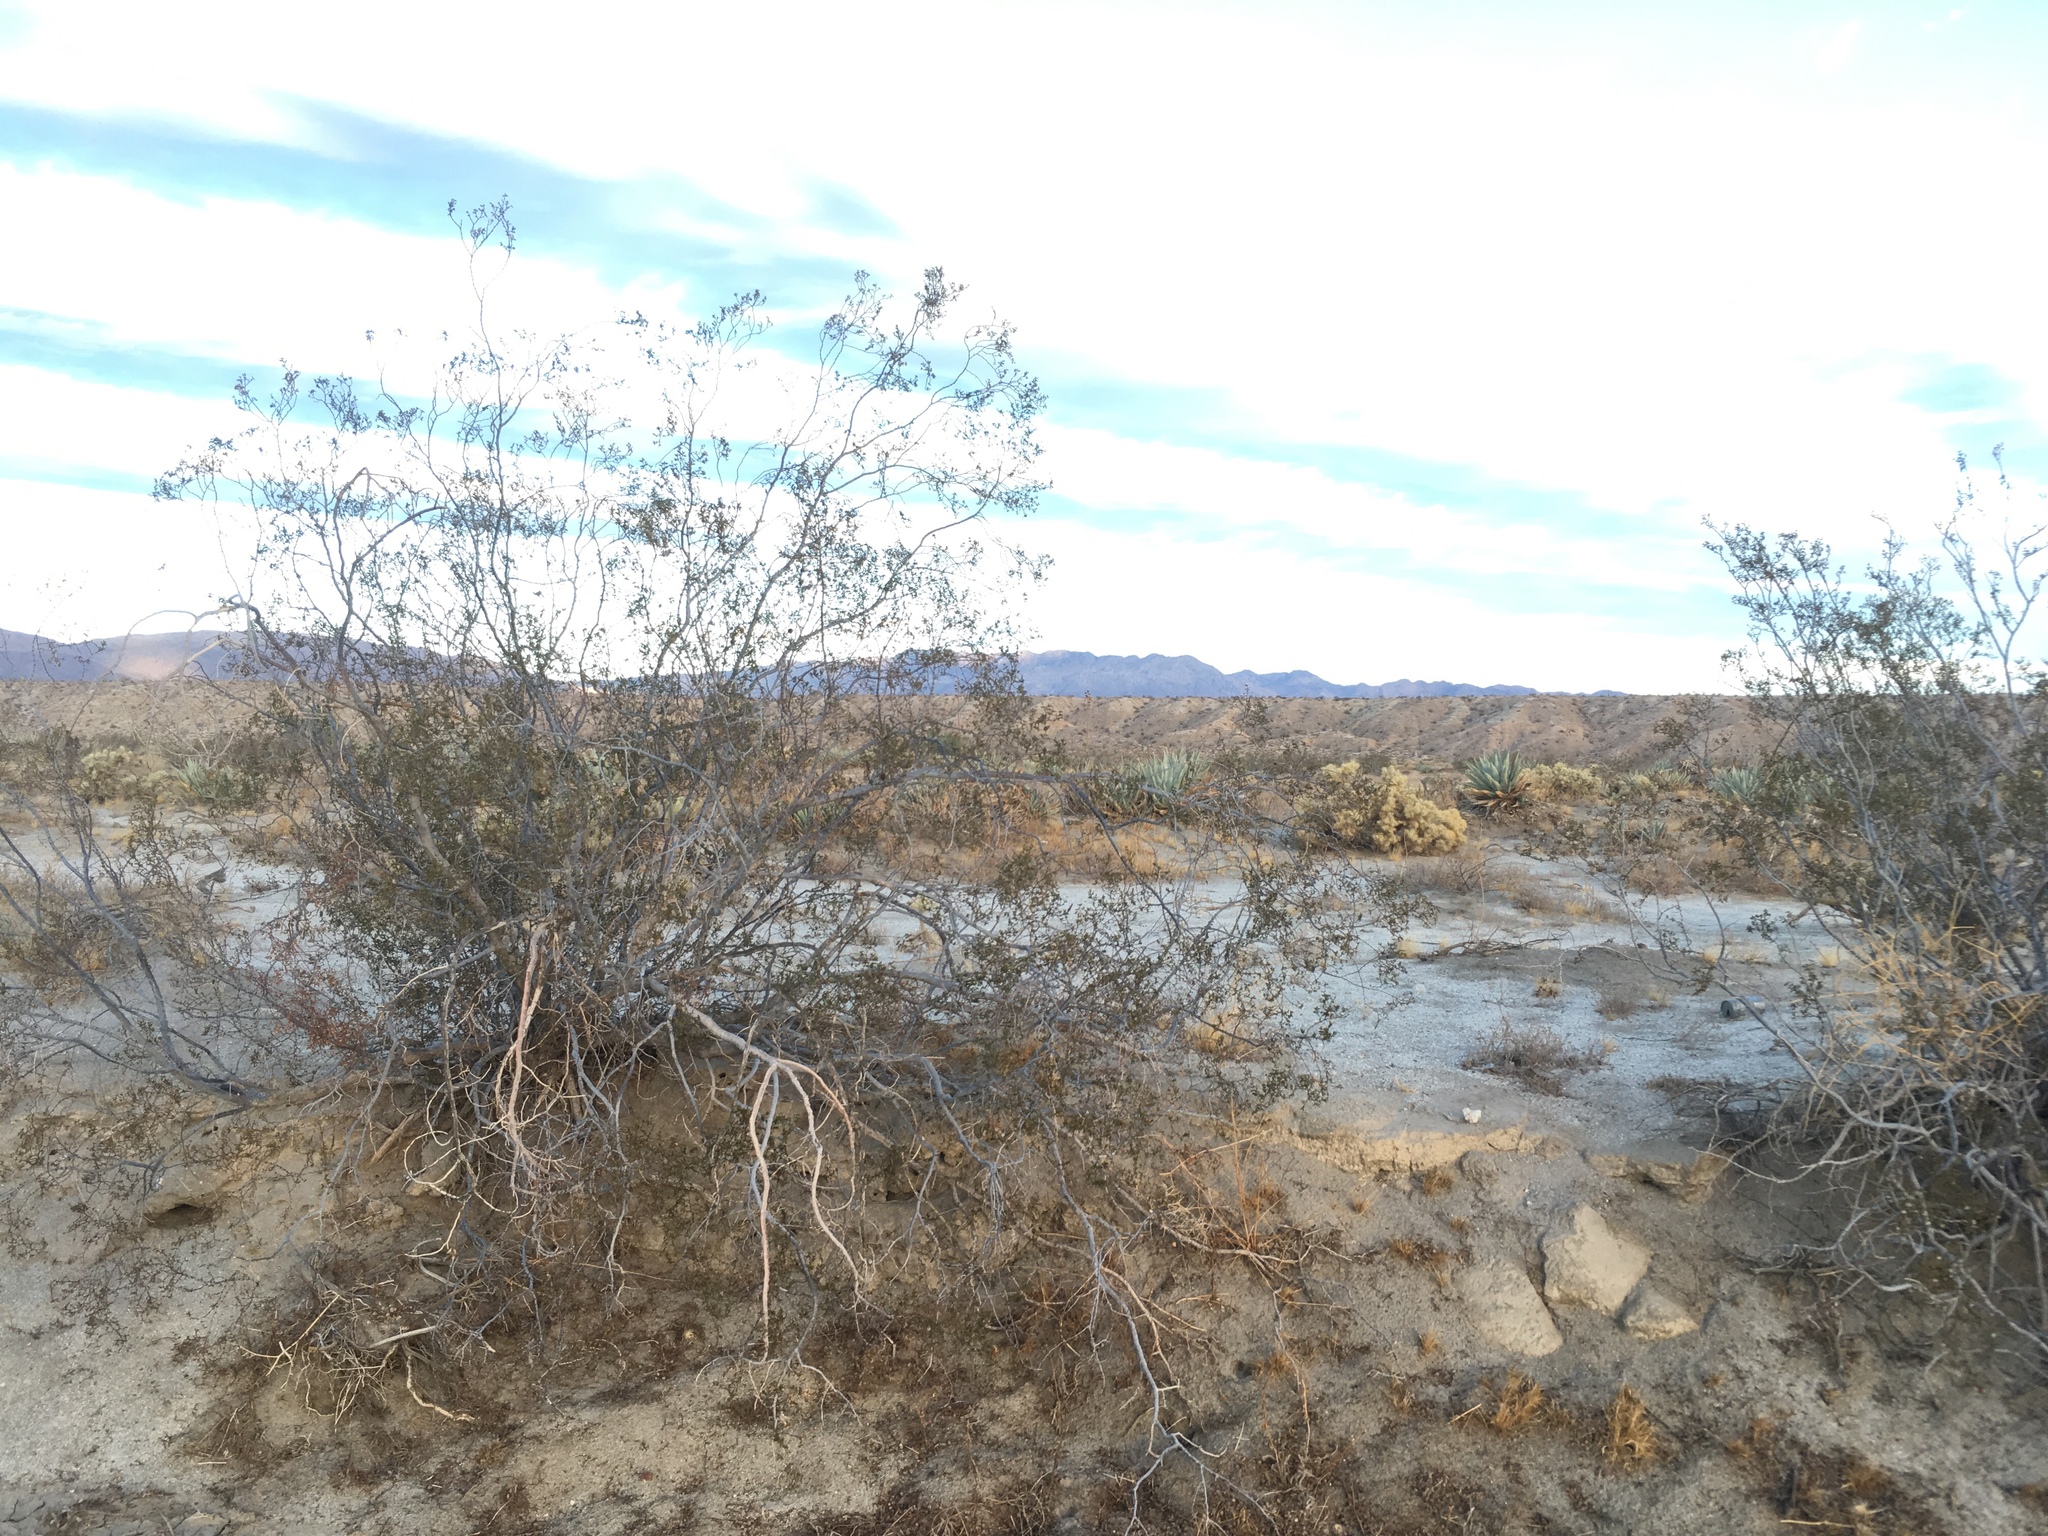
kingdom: Plantae
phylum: Tracheophyta
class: Magnoliopsida
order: Zygophyllales
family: Zygophyllaceae
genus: Larrea
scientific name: Larrea tridentata
